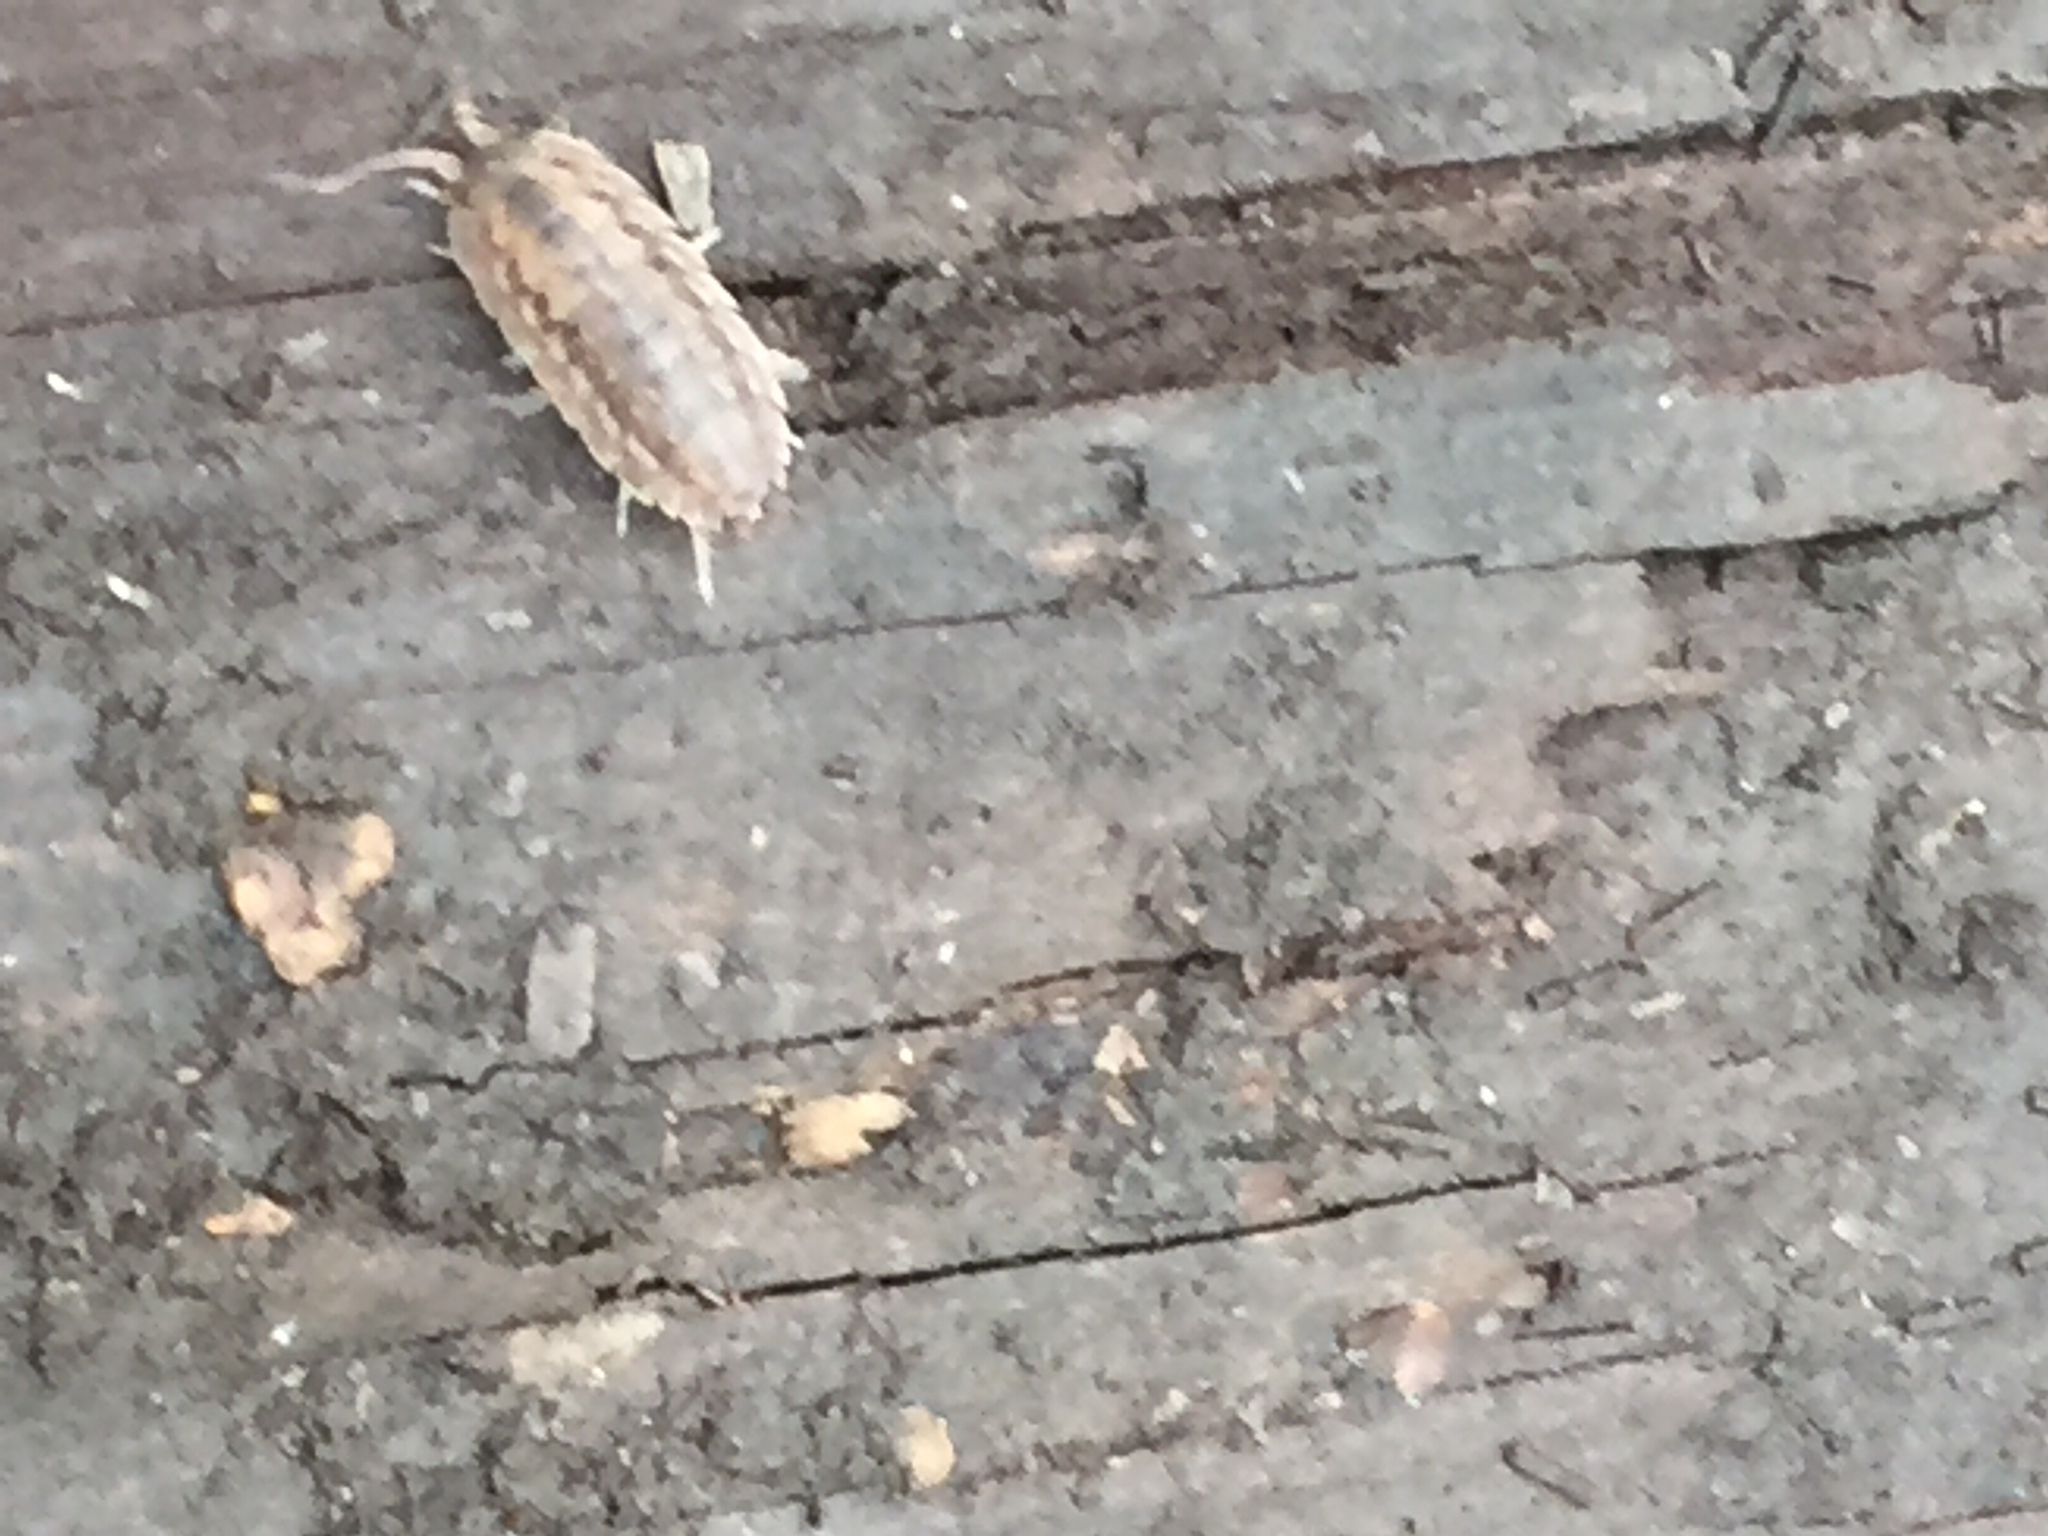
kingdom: Animalia
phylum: Arthropoda
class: Malacostraca
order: Isopoda
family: Trachelipodidae
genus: Trachelipus
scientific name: Trachelipus rathkii
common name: Isopod
